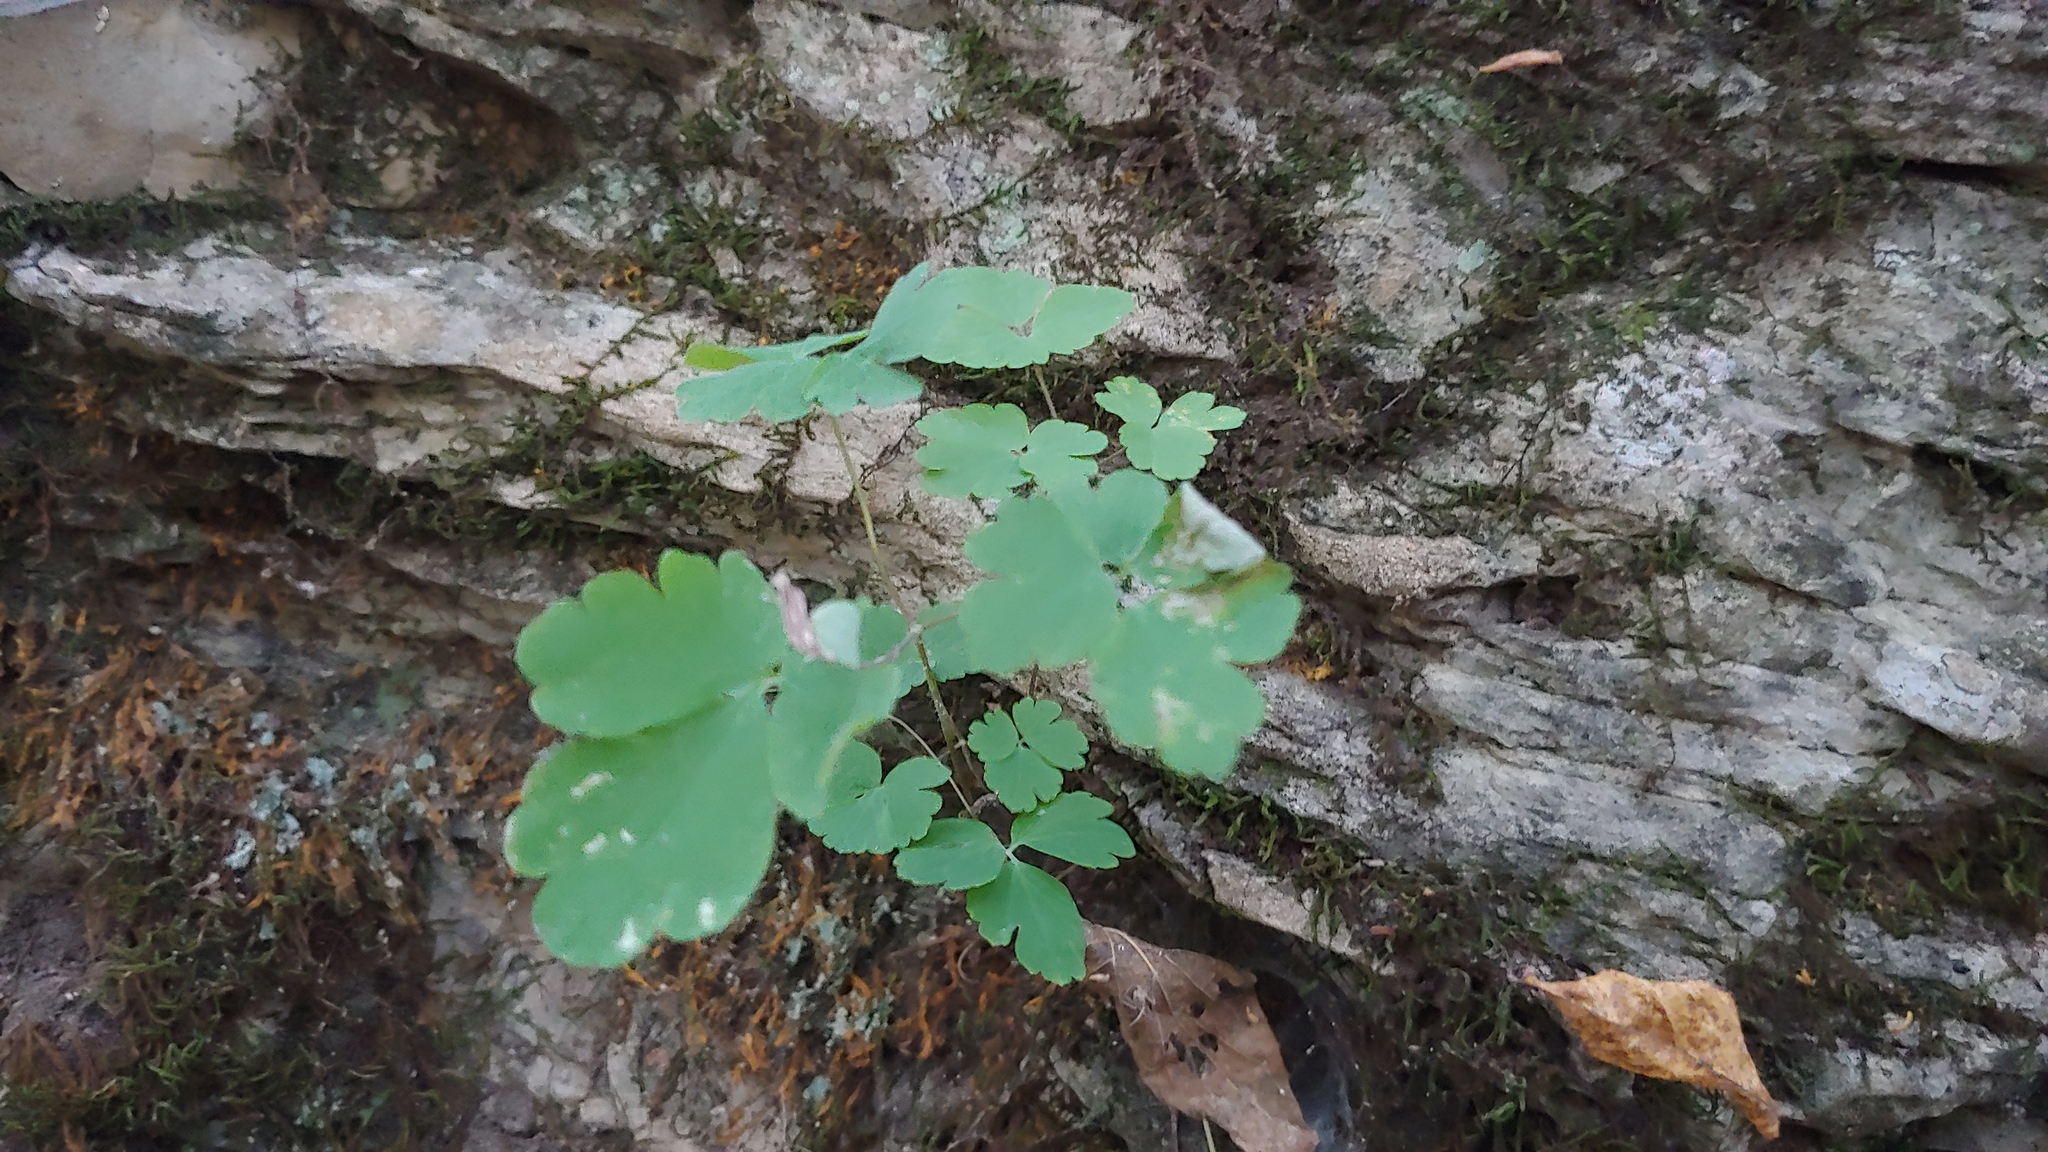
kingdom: Plantae
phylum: Tracheophyta
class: Magnoliopsida
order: Ranunculales
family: Ranunculaceae
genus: Aquilegia
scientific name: Aquilegia canadensis
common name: American columbine
